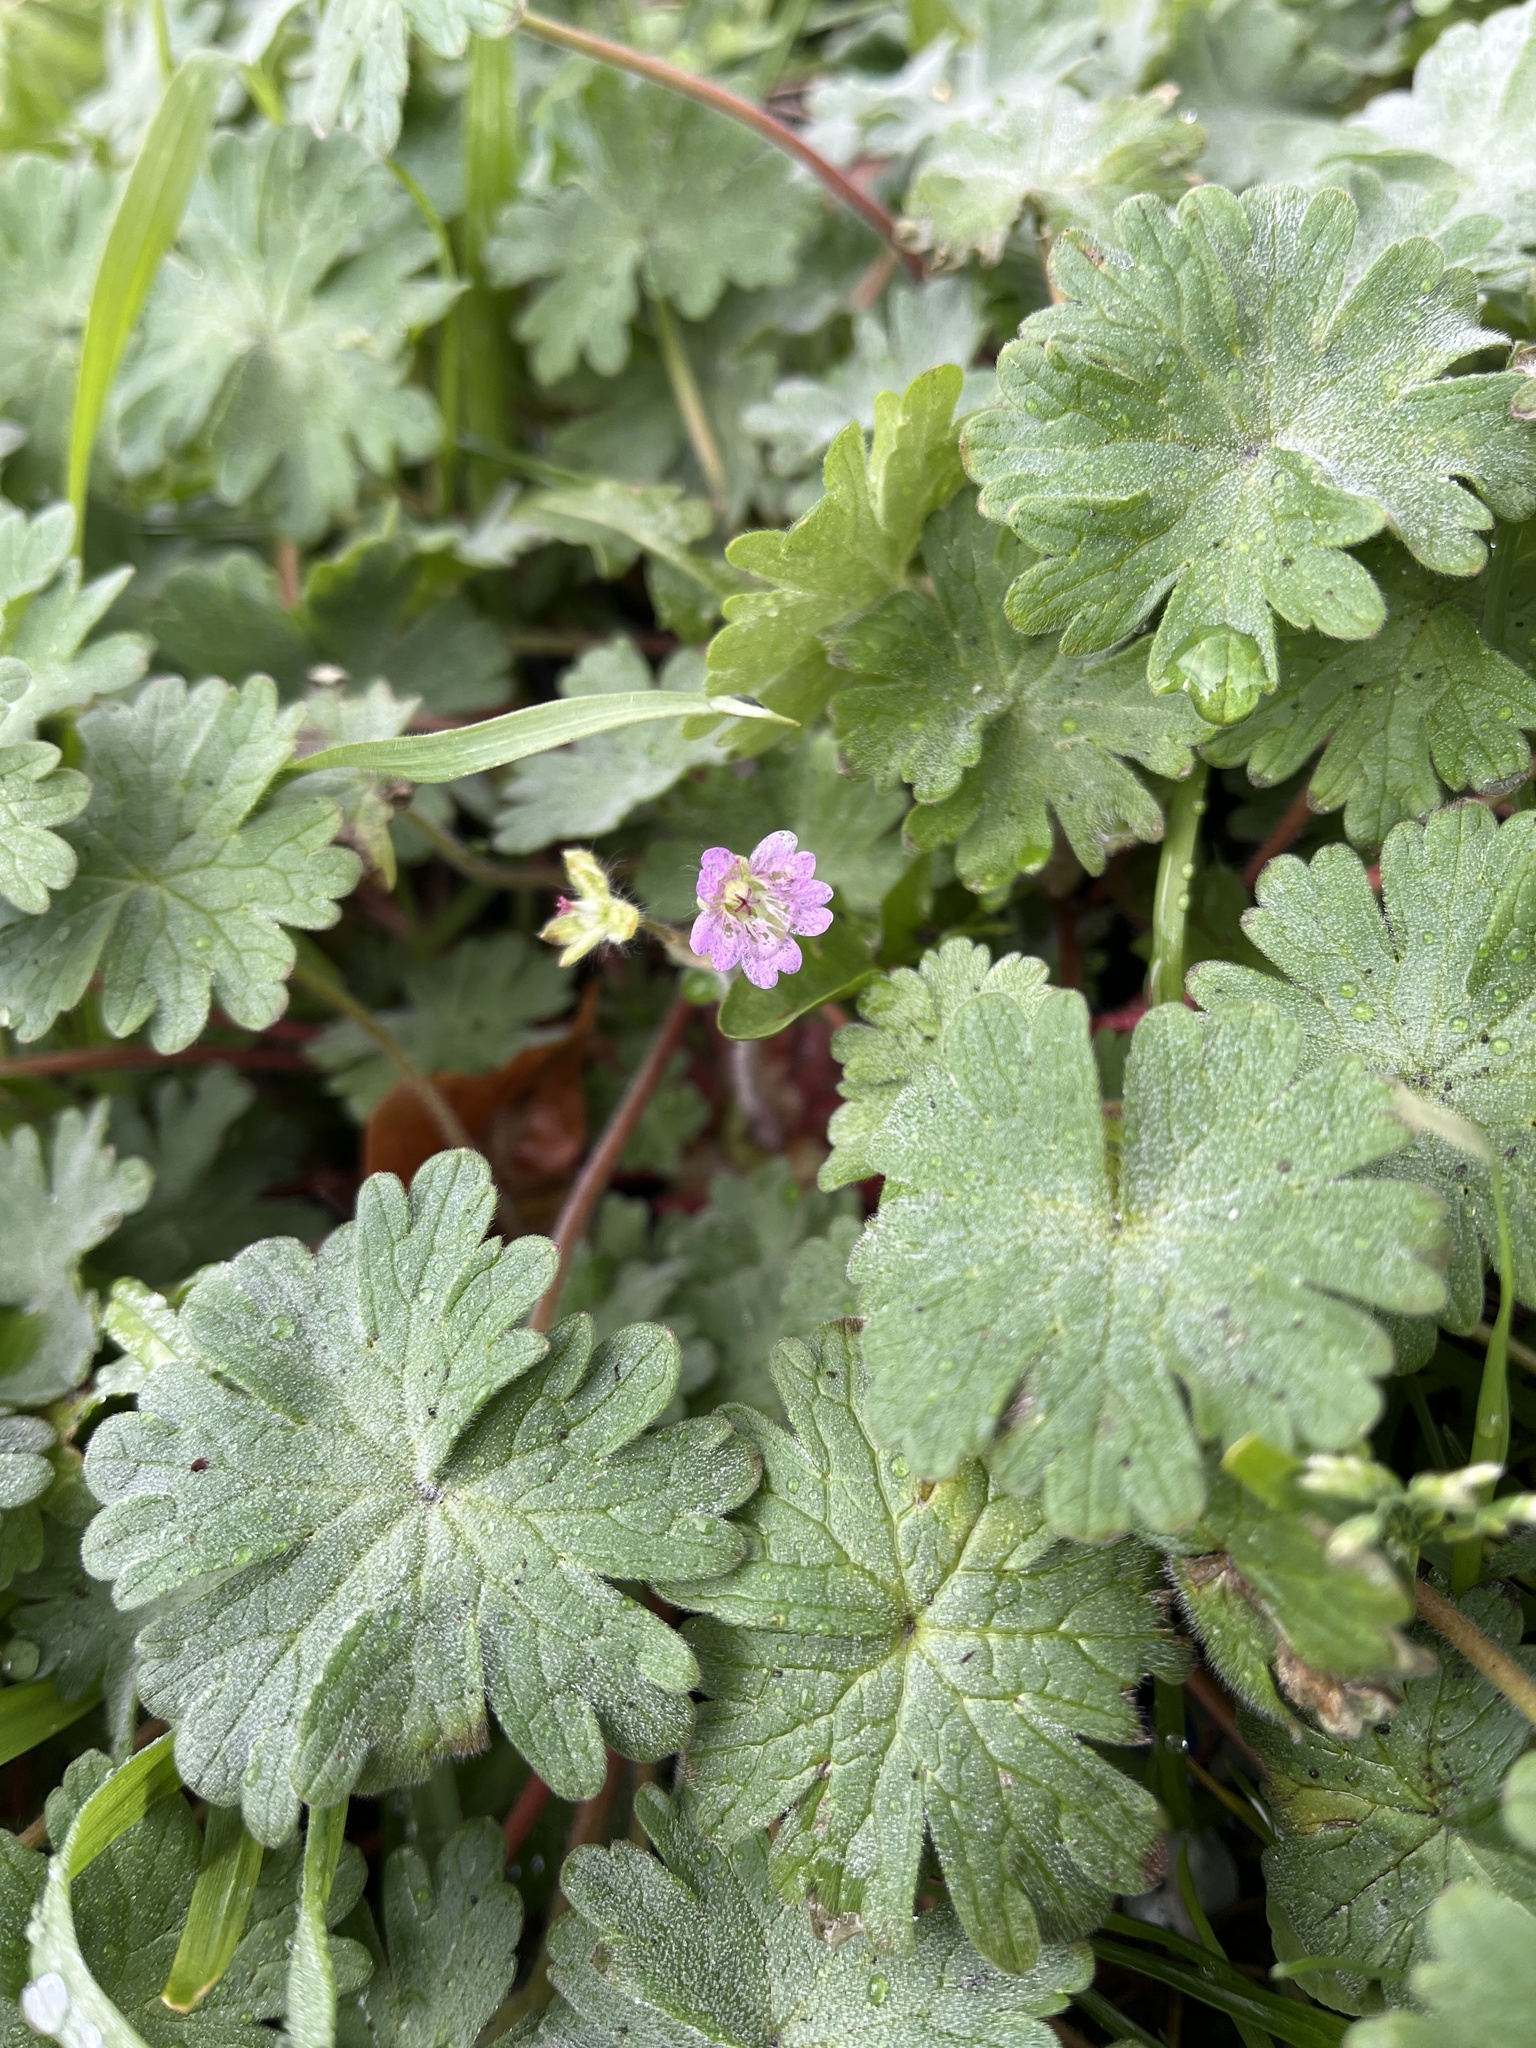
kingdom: Plantae
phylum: Tracheophyta
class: Magnoliopsida
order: Geraniales
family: Geraniaceae
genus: Geranium
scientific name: Geranium molle
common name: Dove's-foot crane's-bill
